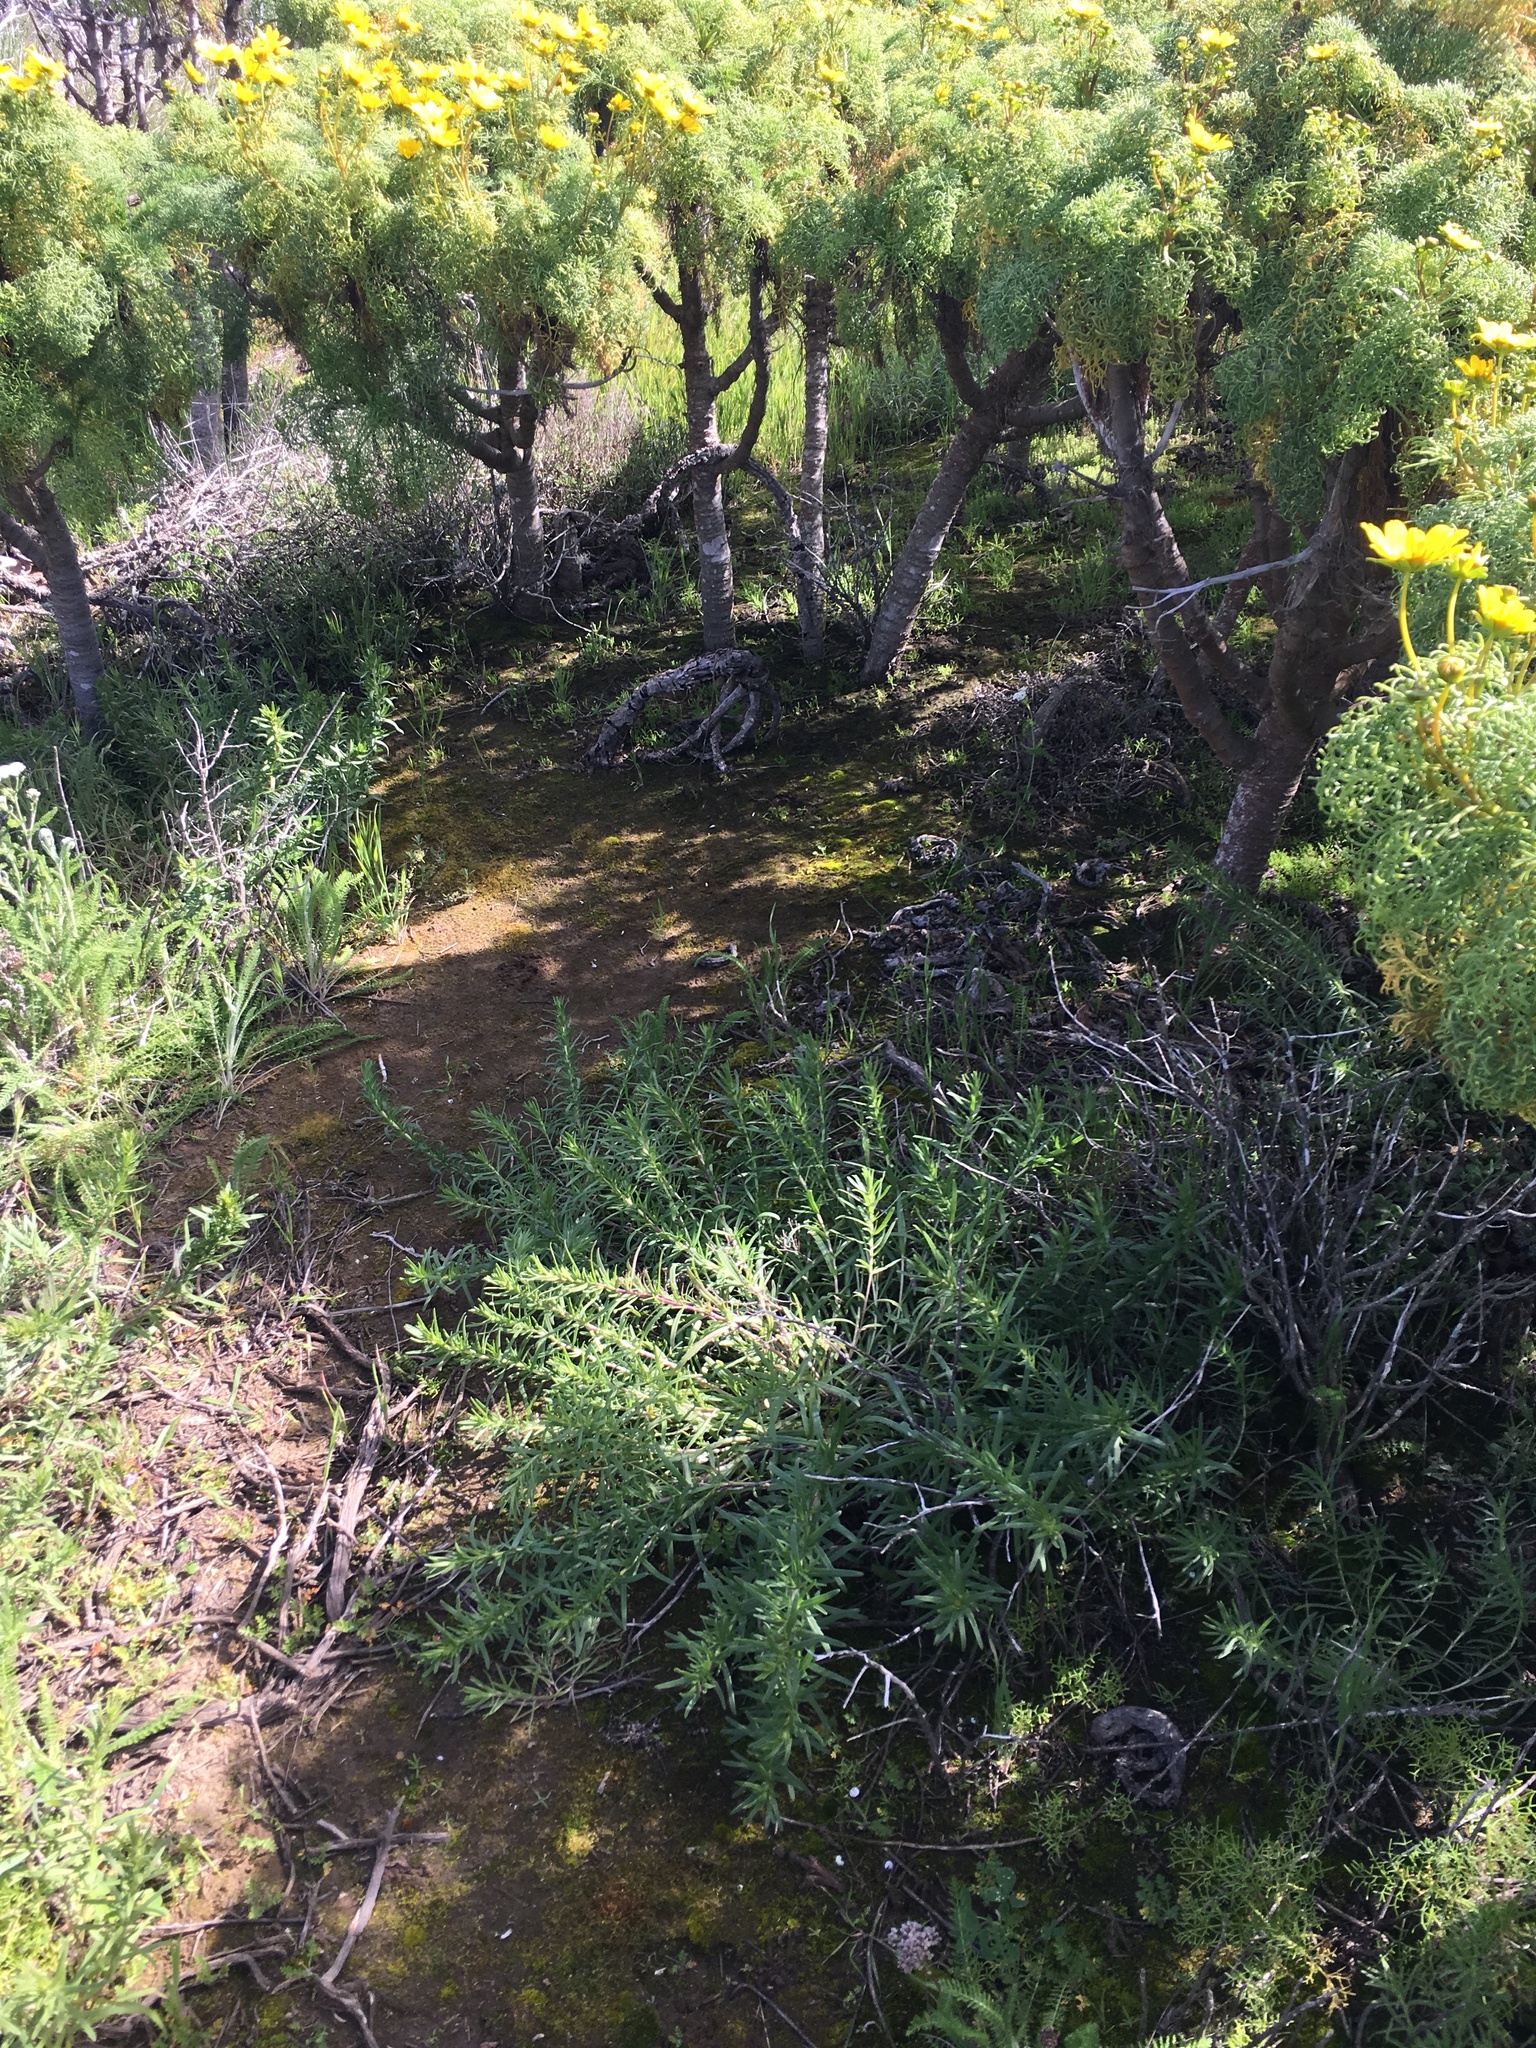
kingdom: Plantae
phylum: Tracheophyta
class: Magnoliopsida
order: Asterales
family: Asteraceae
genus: Coreopsis
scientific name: Coreopsis gigantea
